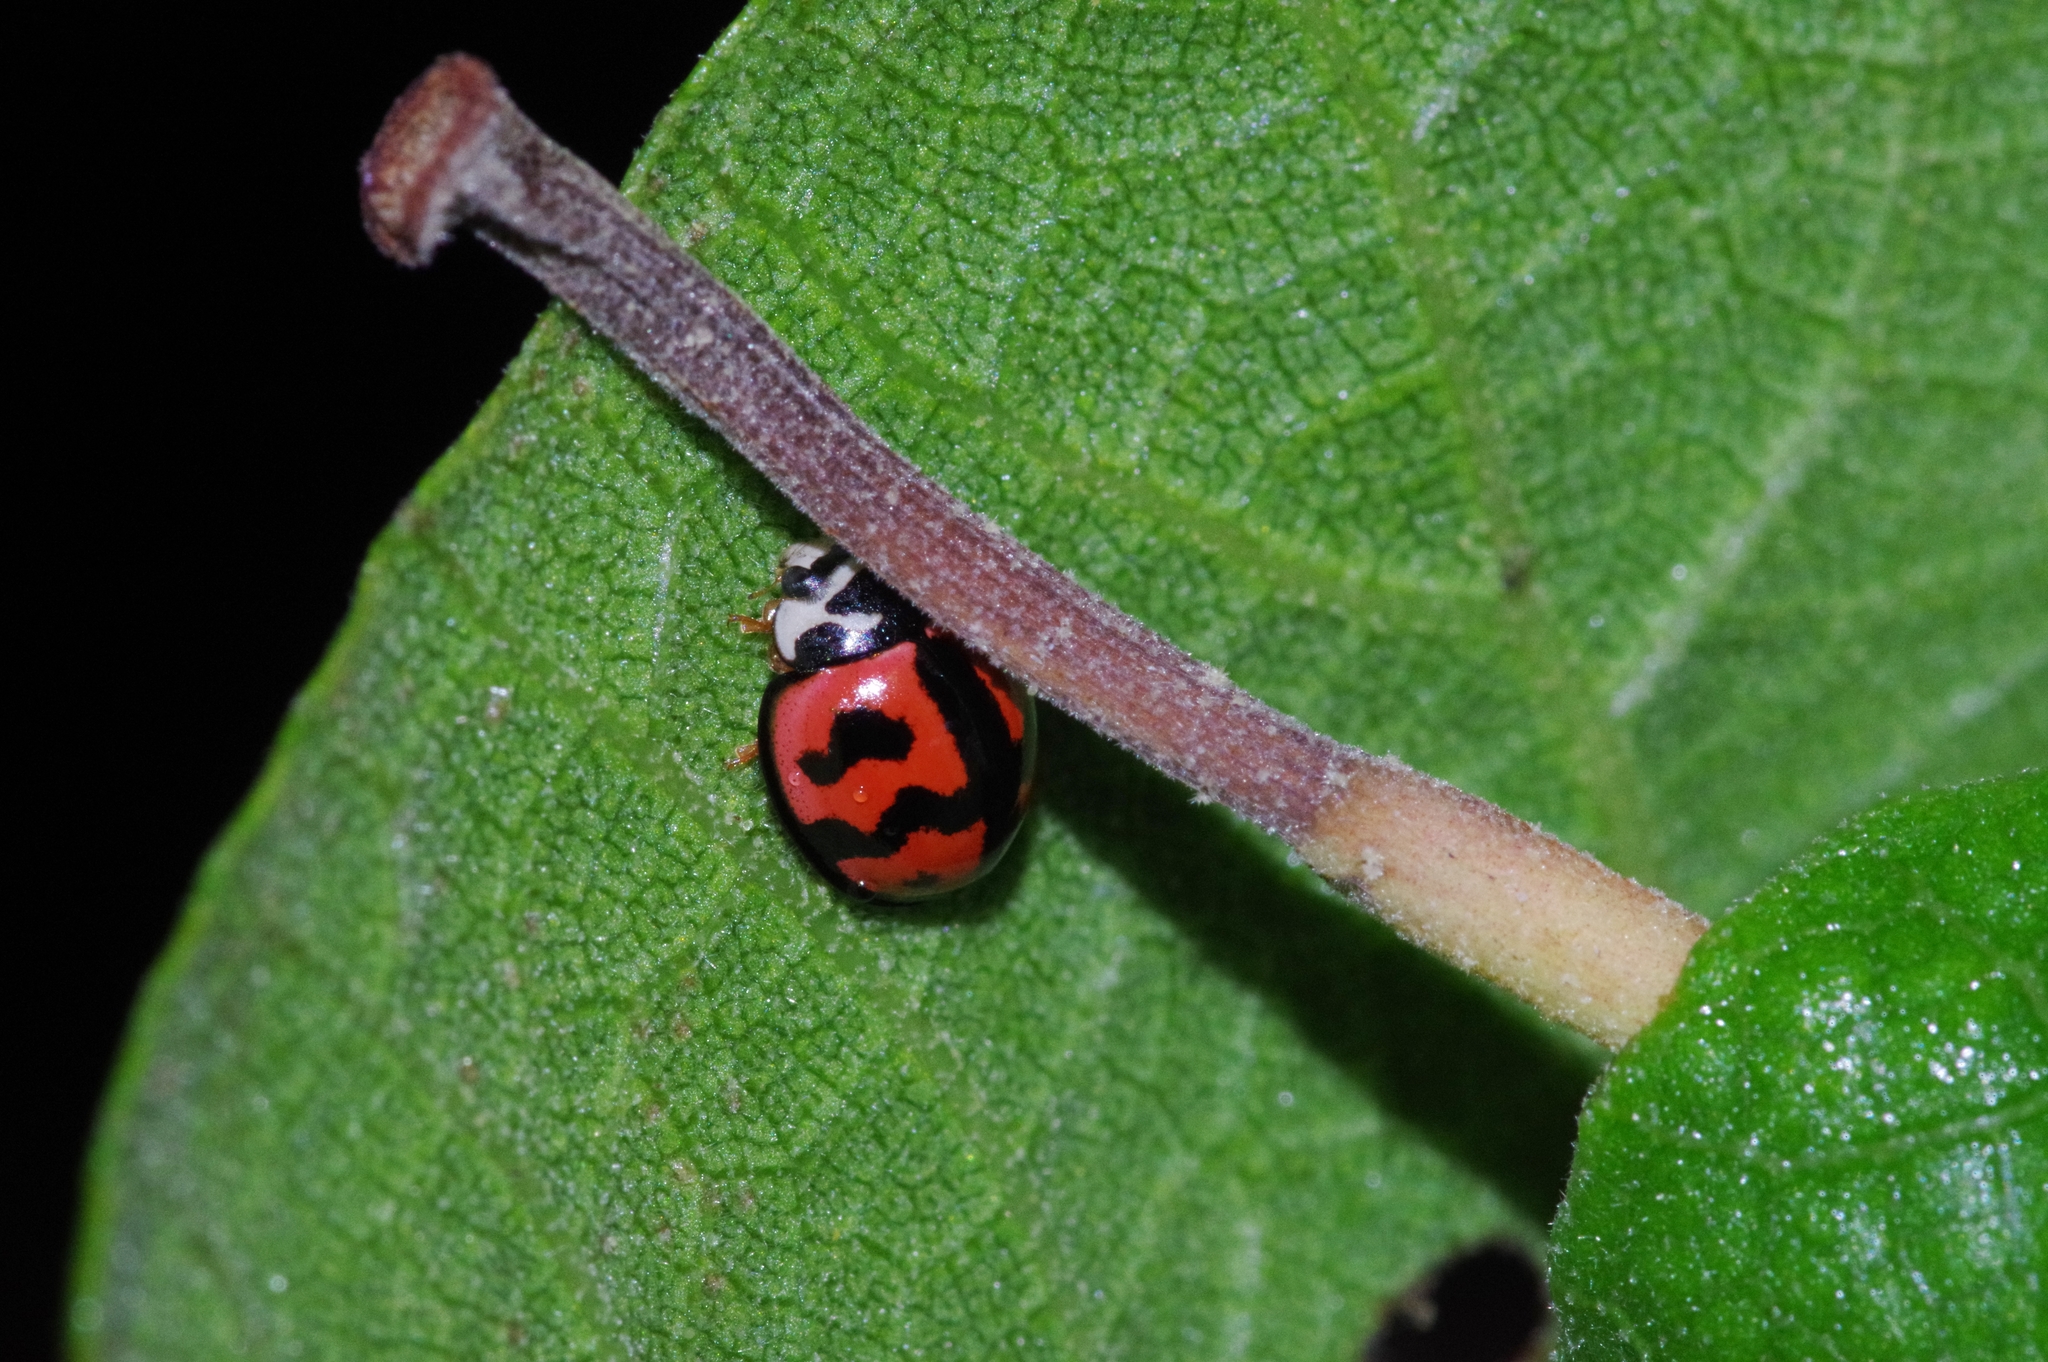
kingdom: Animalia
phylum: Arthropoda
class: Insecta
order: Coleoptera
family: Coccinellidae
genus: Cheilomenes
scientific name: Cheilomenes sexmaculata
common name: Ladybird beetle
